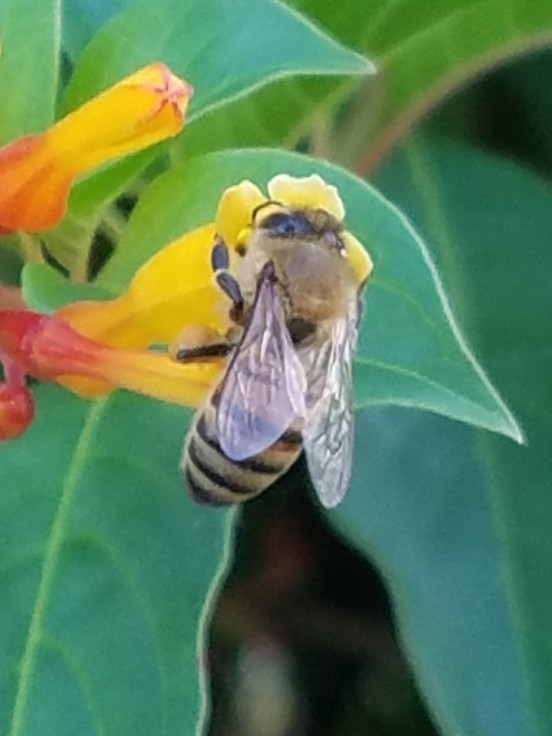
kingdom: Animalia
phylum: Arthropoda
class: Insecta
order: Hymenoptera
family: Apidae
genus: Apis
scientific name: Apis mellifera
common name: Honey bee
